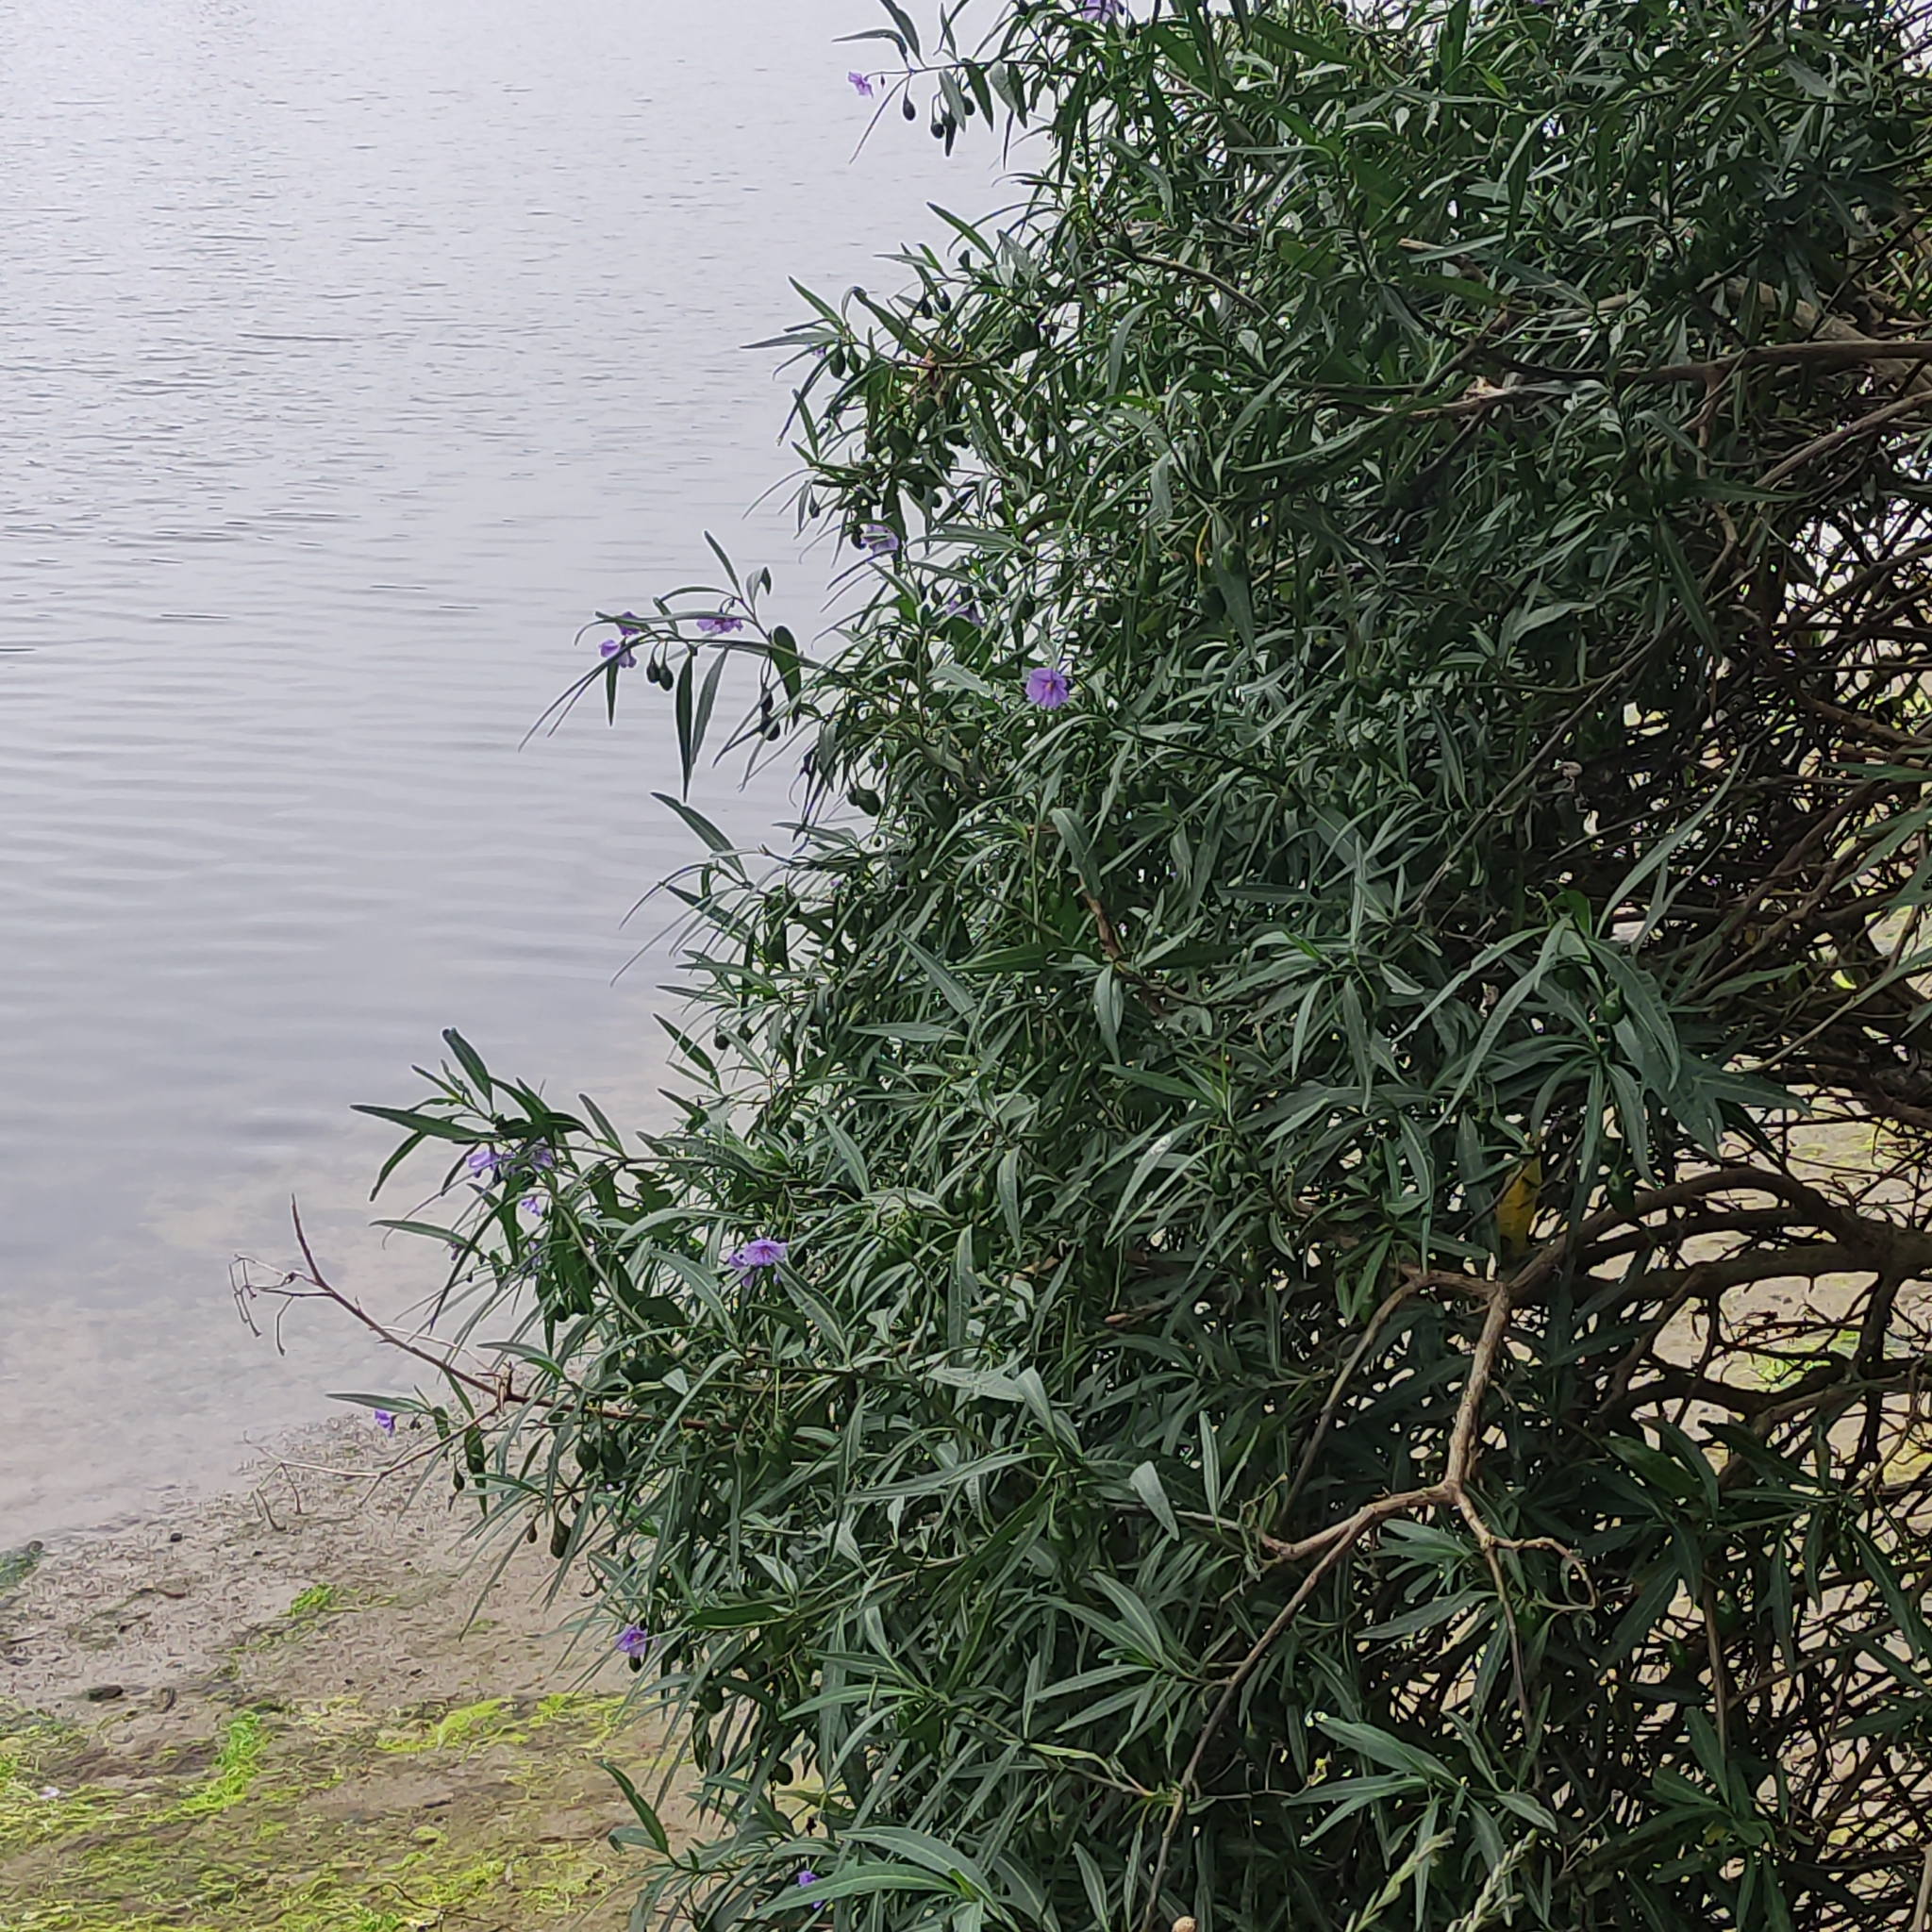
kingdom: Plantae
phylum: Tracheophyta
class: Magnoliopsida
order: Solanales
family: Solanaceae
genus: Solanum
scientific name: Solanum laciniatum
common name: Kangaroo-apple
